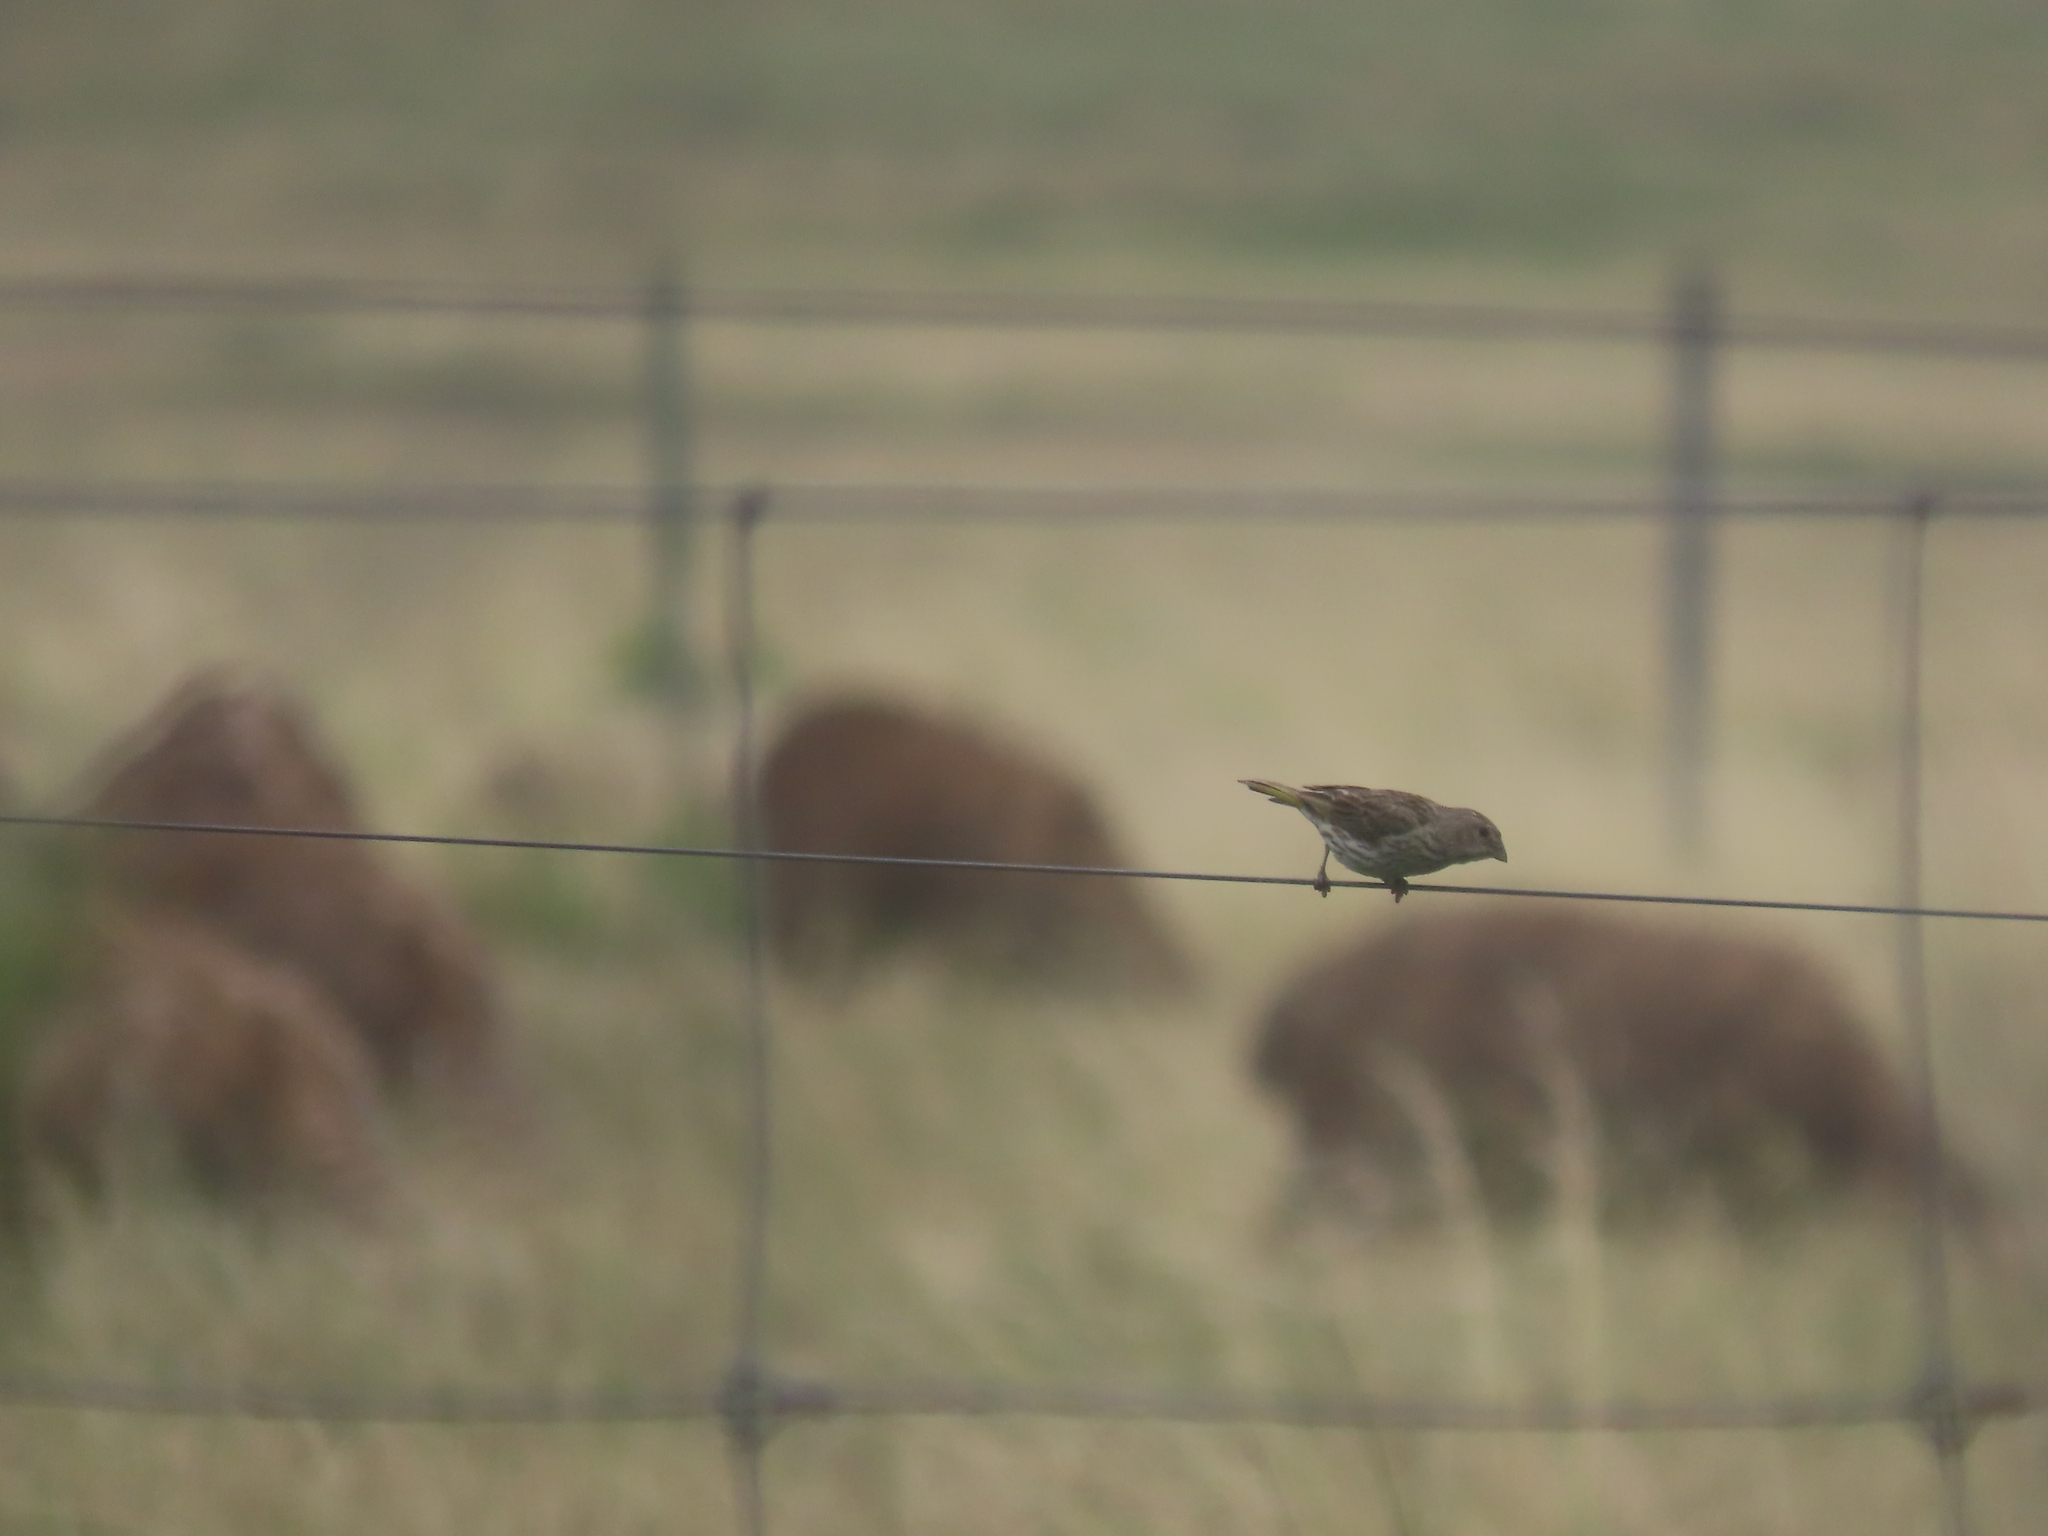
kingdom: Animalia
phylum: Chordata
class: Aves
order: Passeriformes
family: Thraupidae
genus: Sicalis
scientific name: Sicalis flaveola
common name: Saffron finch
